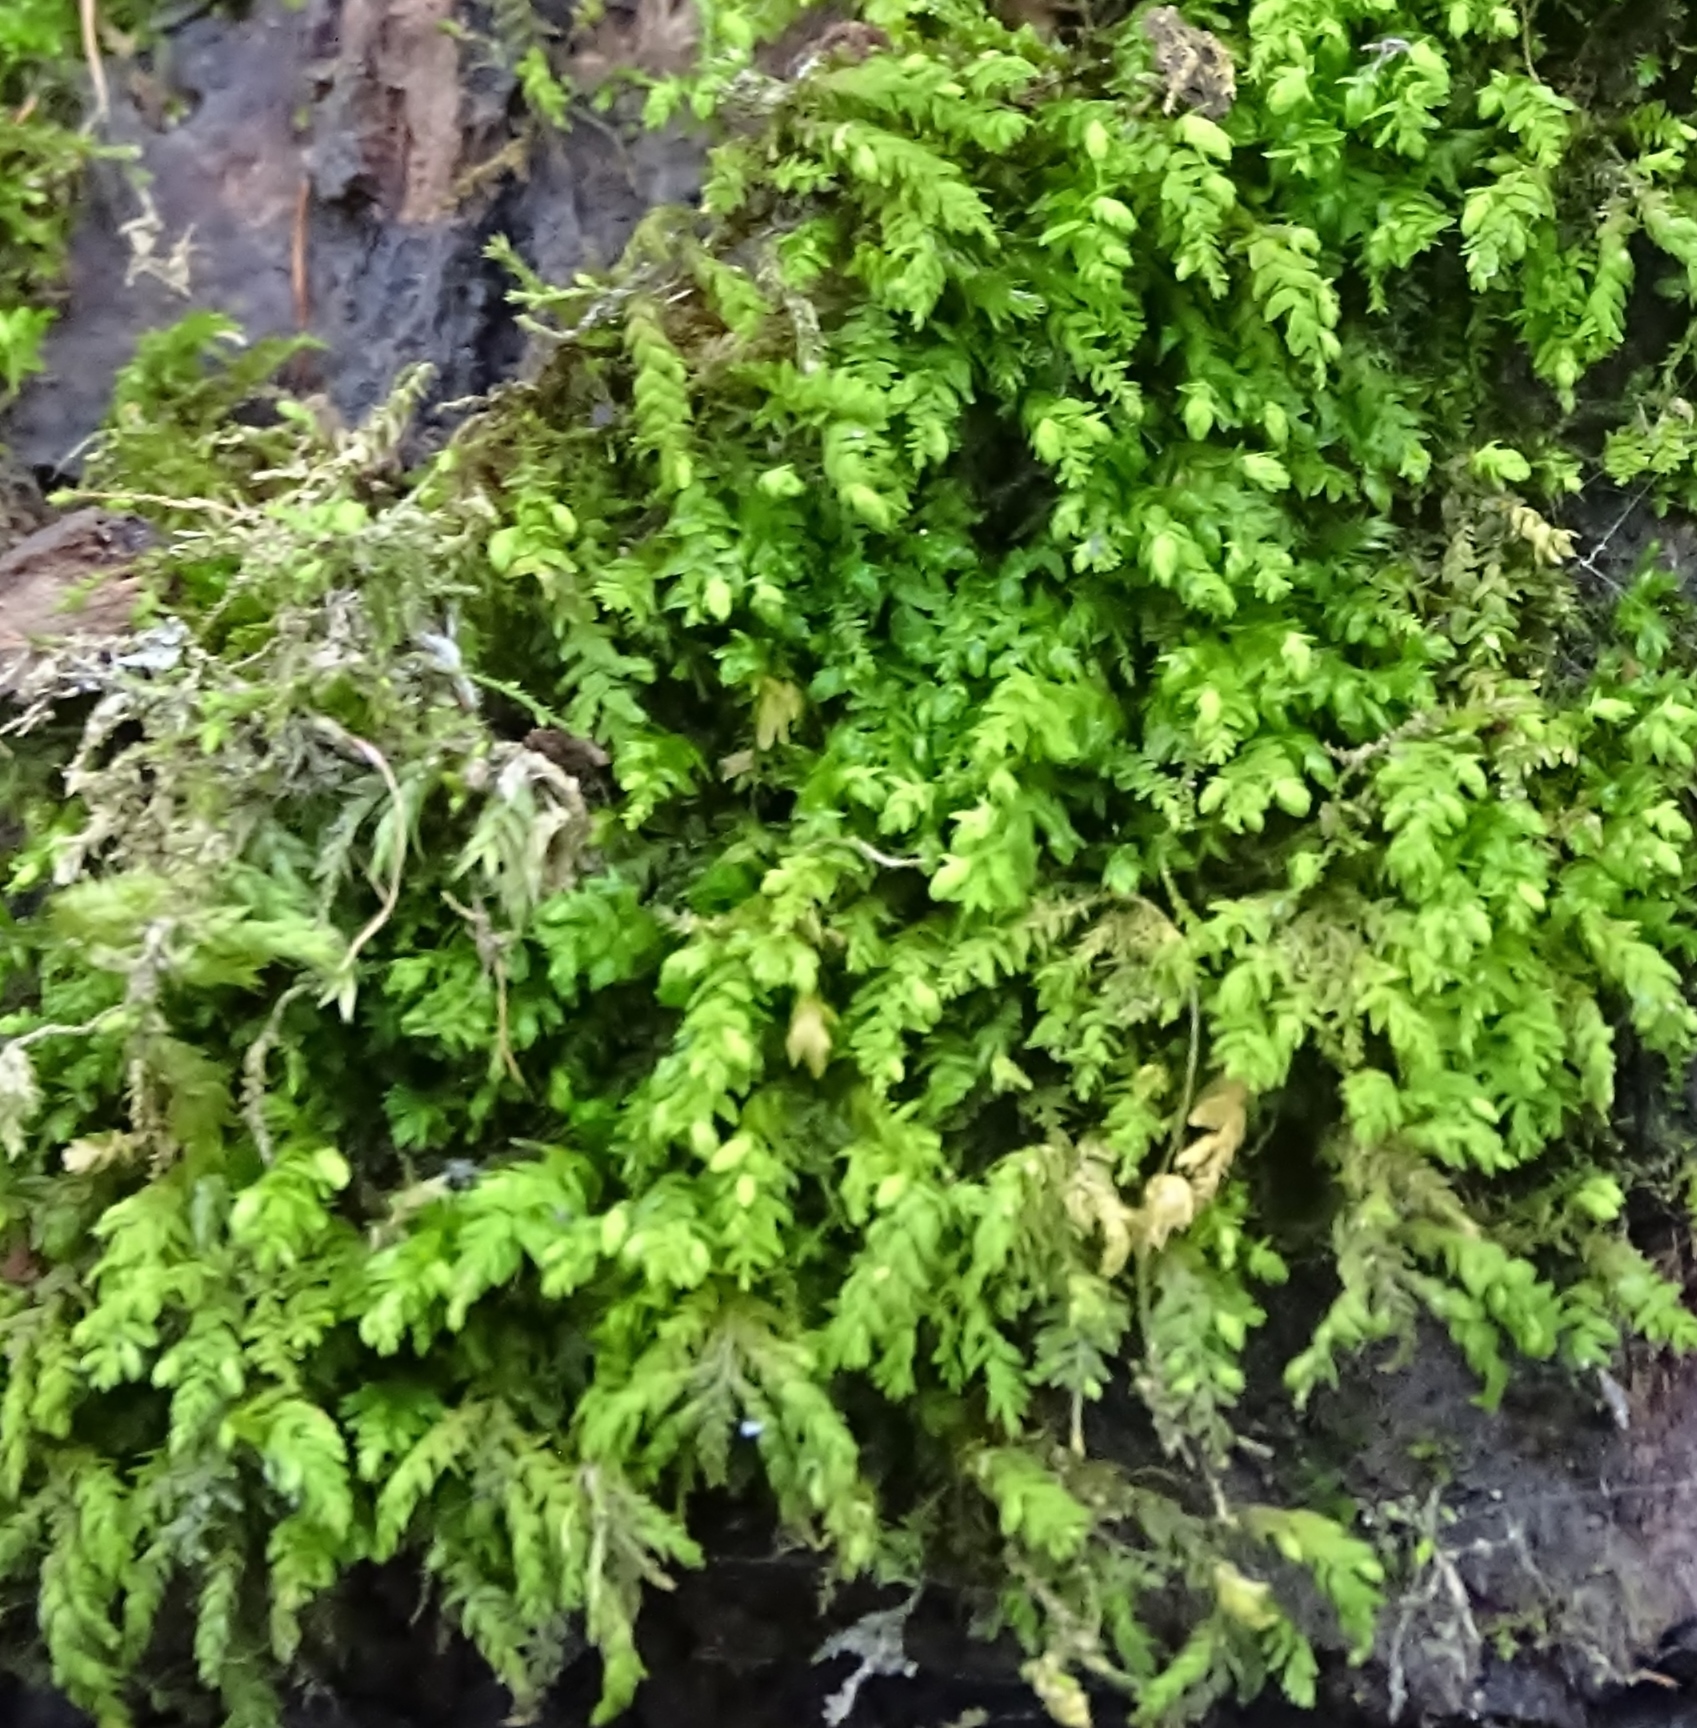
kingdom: Plantae
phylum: Bryophyta
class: Bryopsida
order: Hypnales
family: Neckeraceae
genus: Pseudanomodon
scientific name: Pseudanomodon attenuatus
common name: Tree-skirt moss
